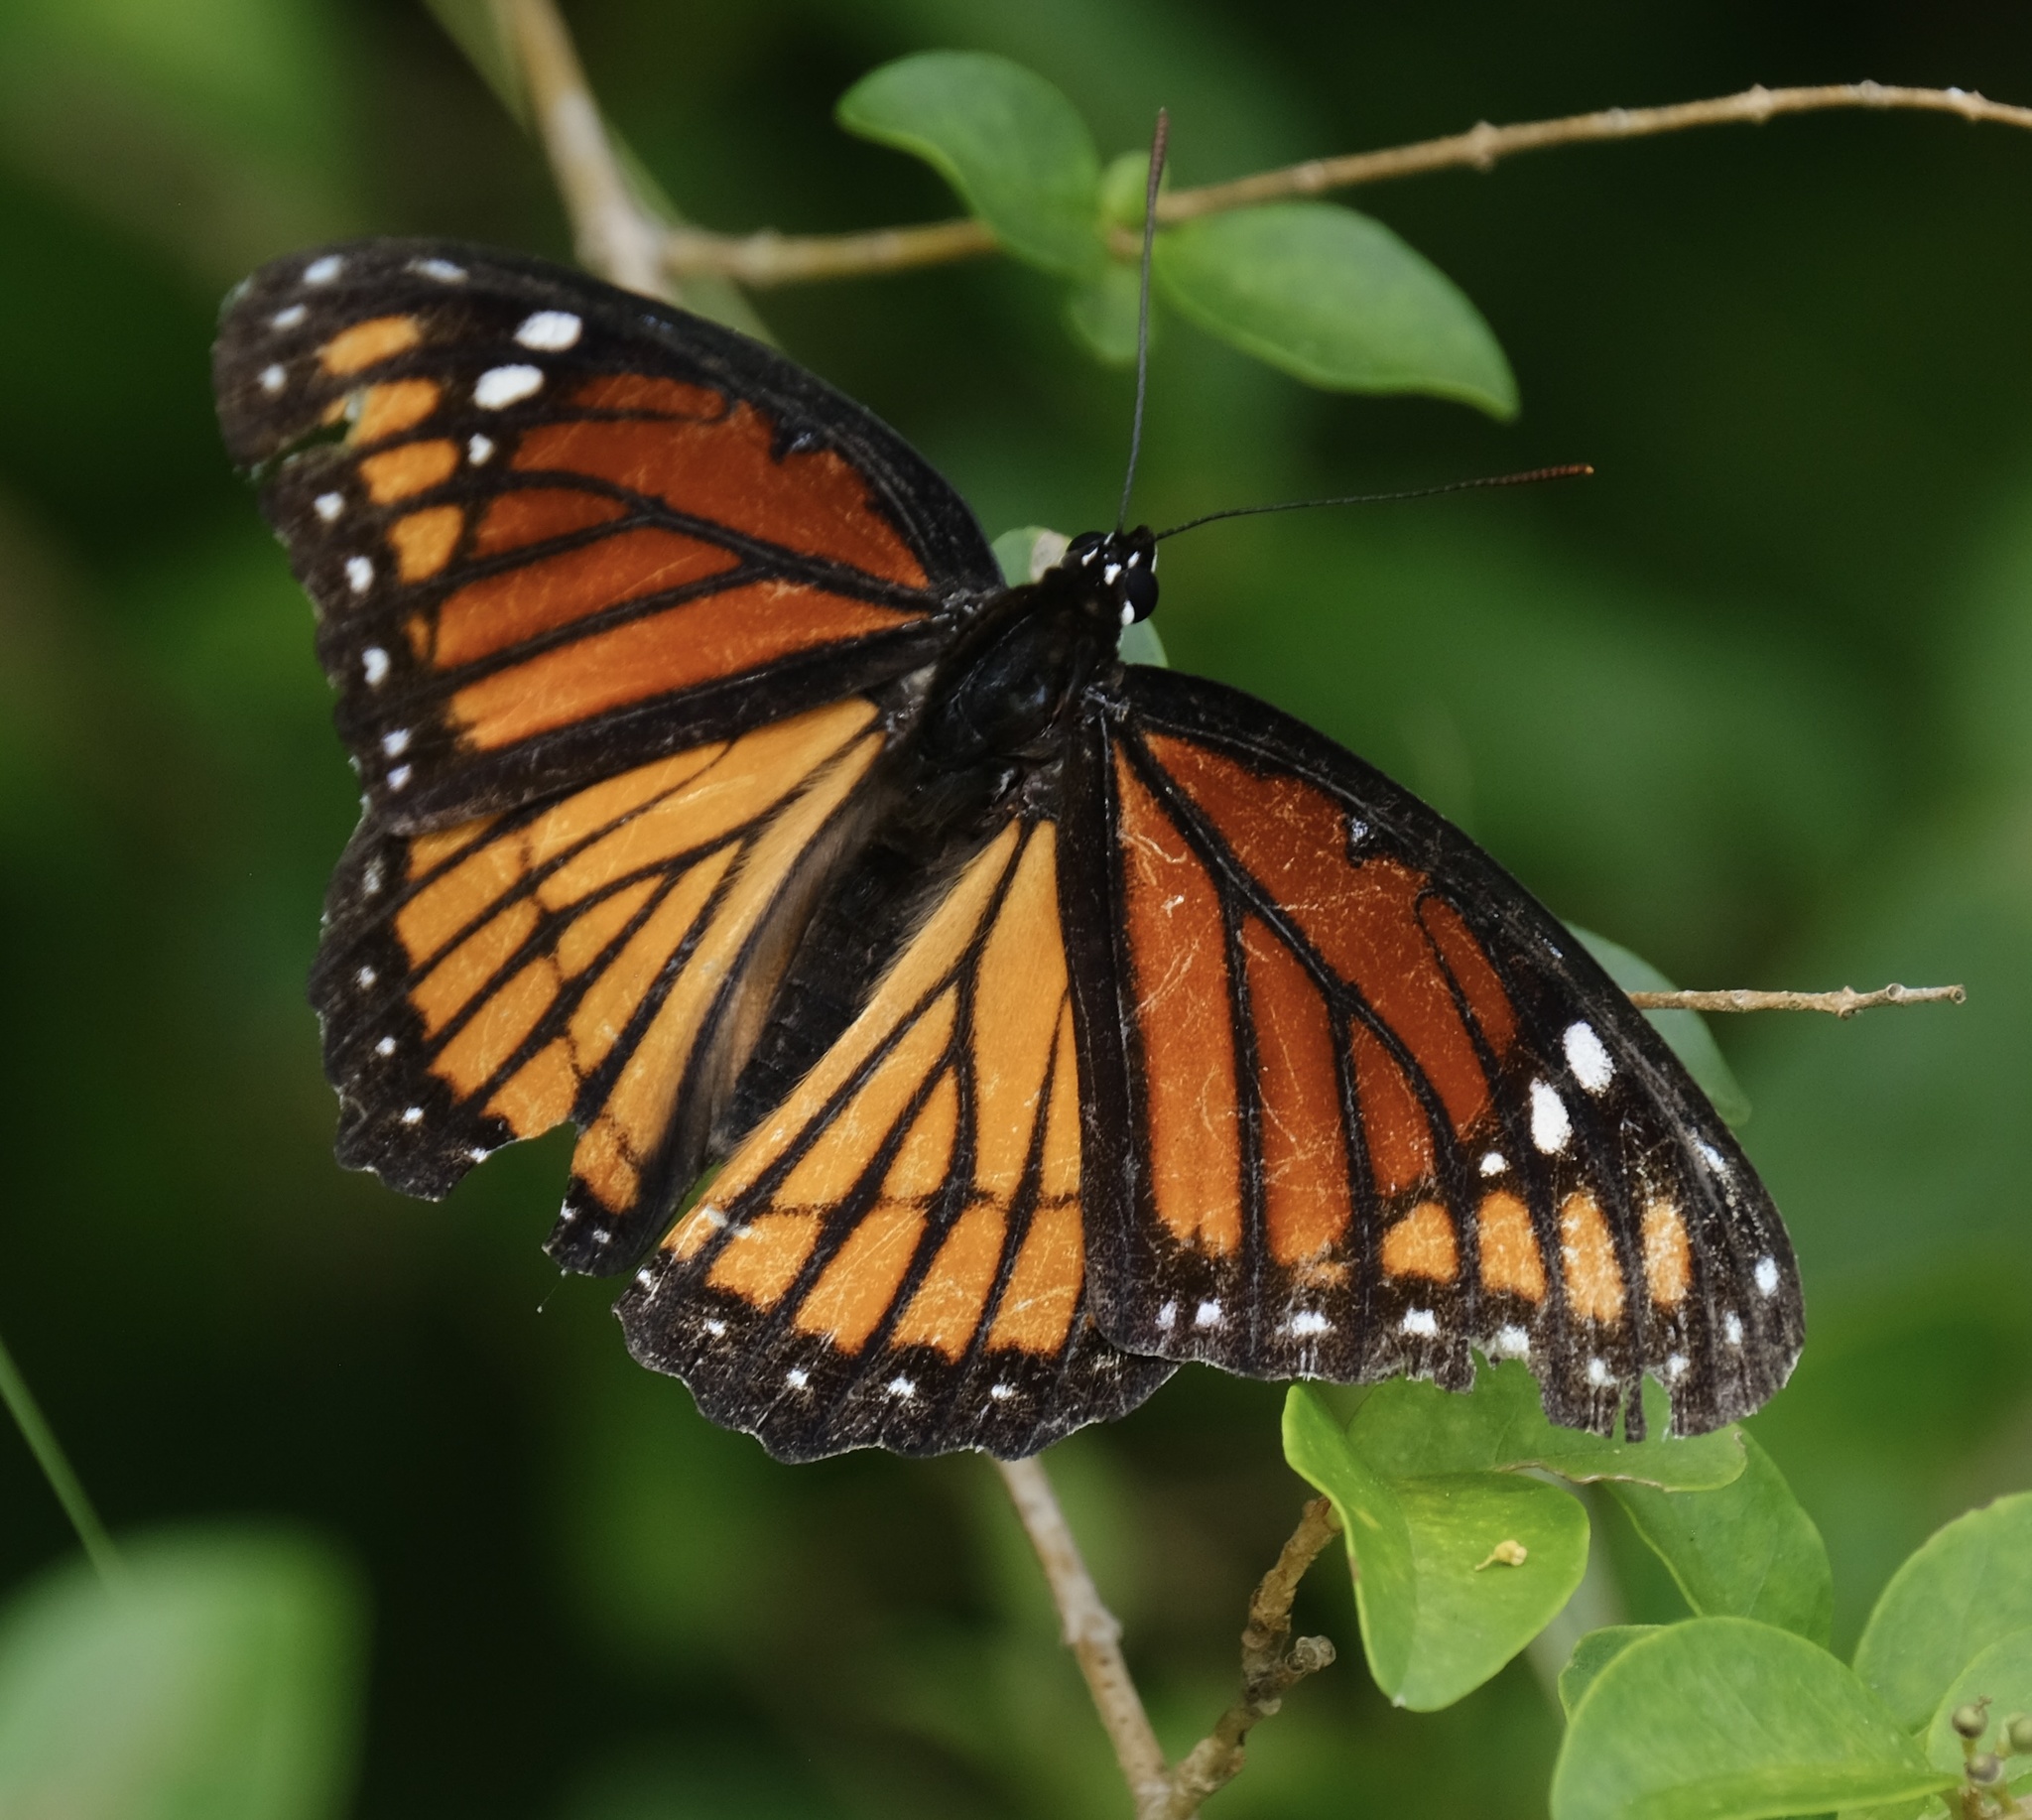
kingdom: Animalia
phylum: Arthropoda
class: Insecta
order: Lepidoptera
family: Nymphalidae
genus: Limenitis
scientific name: Limenitis archippus
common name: Viceroy
